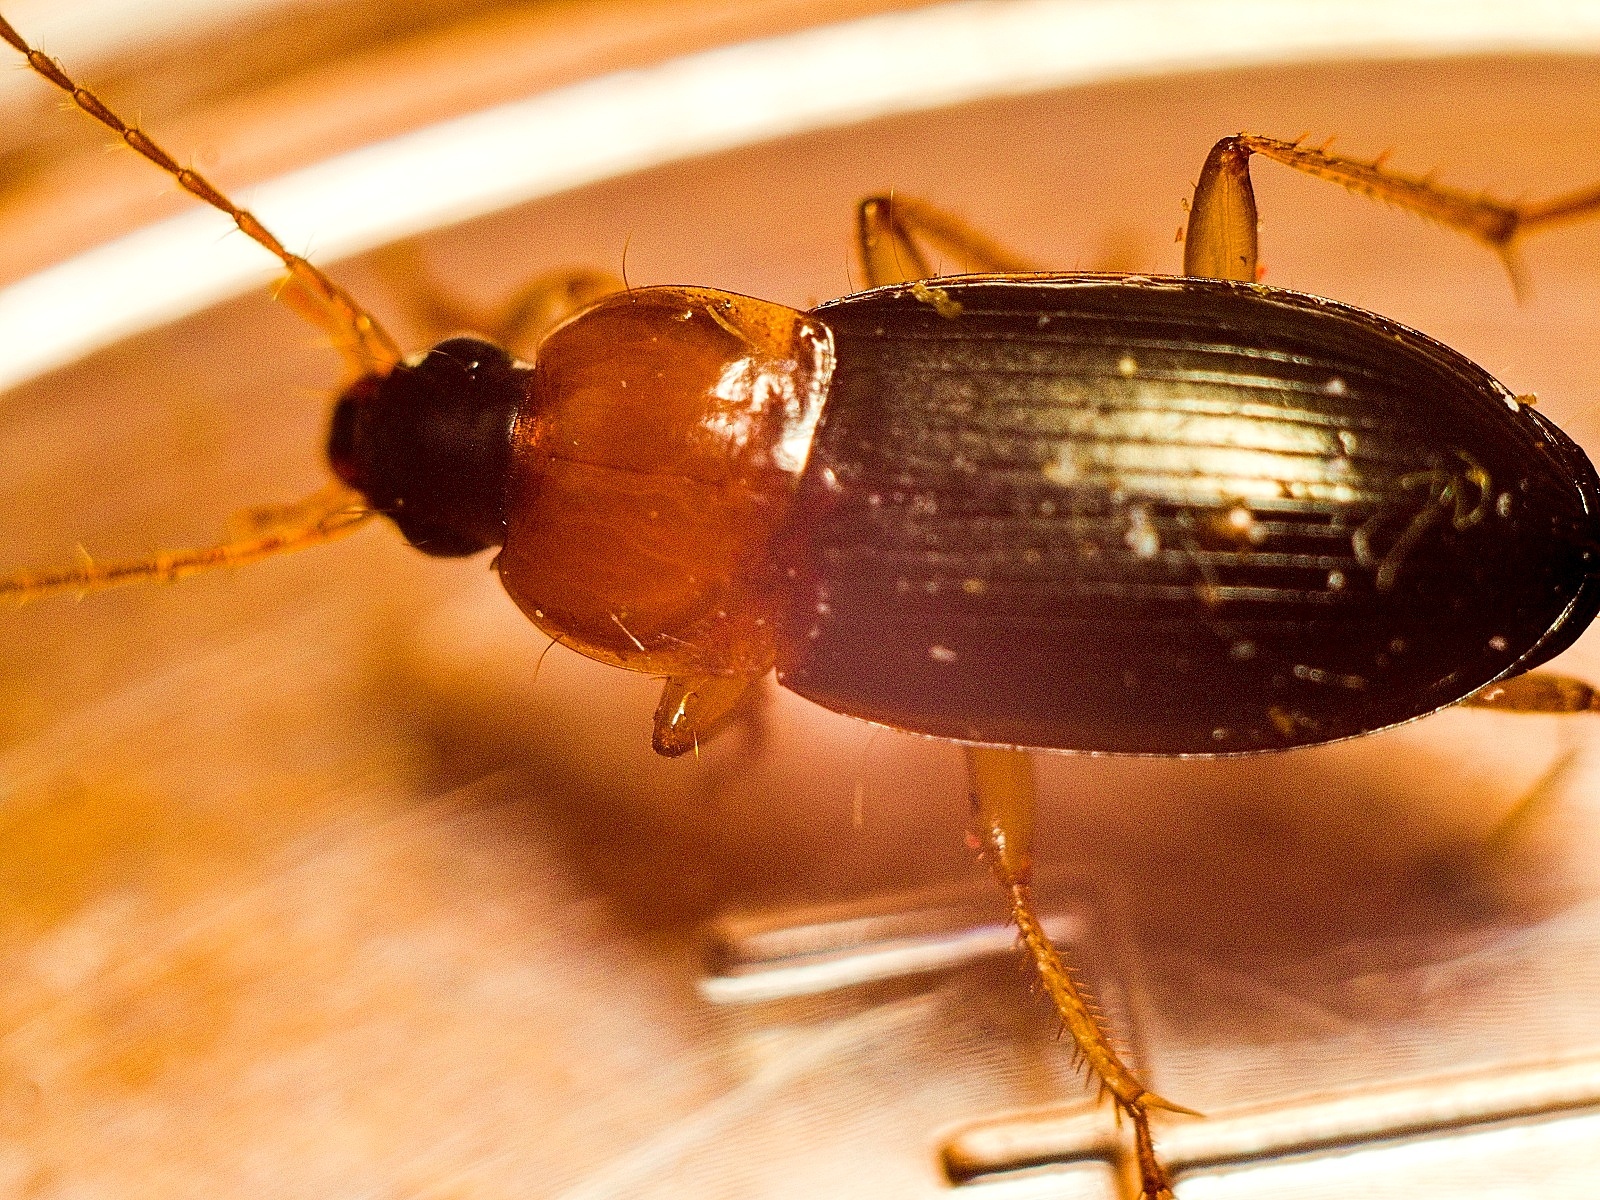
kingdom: Animalia
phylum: Arthropoda
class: Insecta
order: Coleoptera
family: Carabidae
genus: Calathus
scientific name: Calathus melanocephalus
